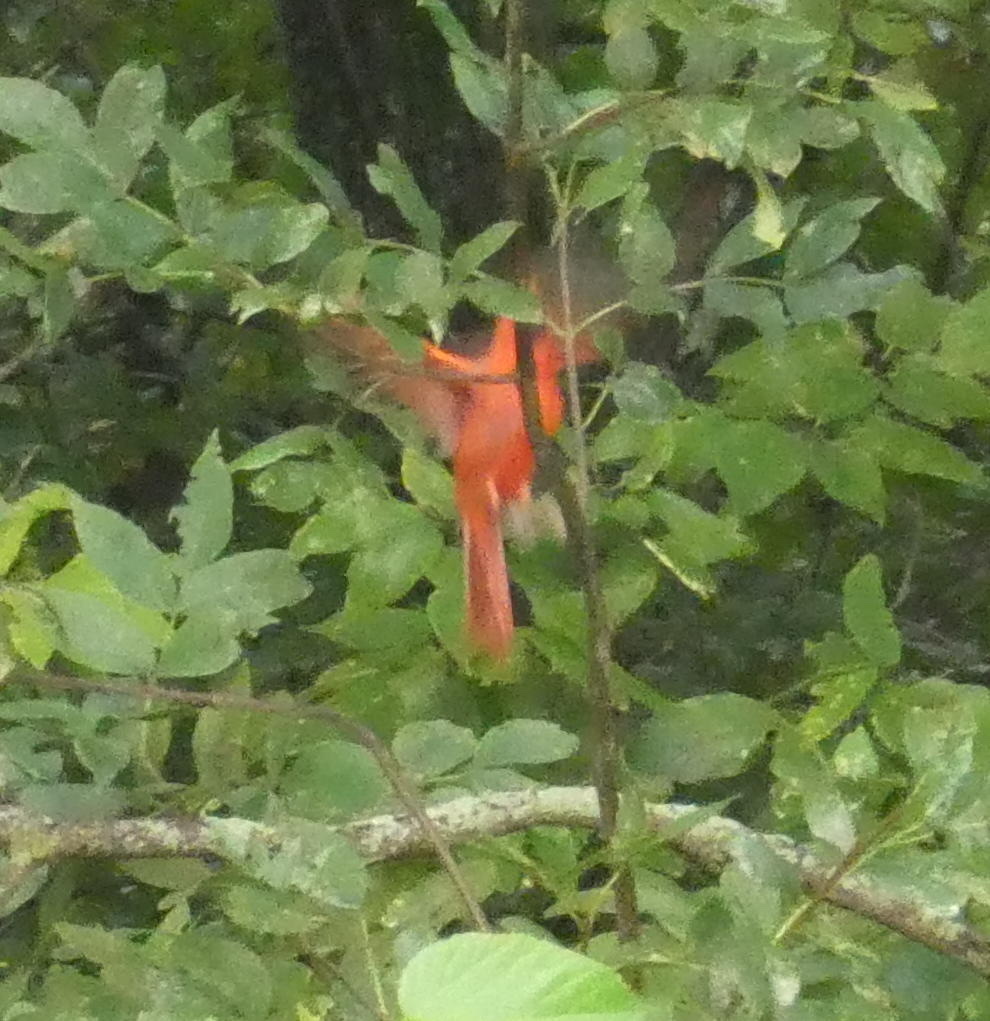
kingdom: Animalia
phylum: Chordata
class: Aves
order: Passeriformes
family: Cardinalidae
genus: Cardinalis
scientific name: Cardinalis cardinalis
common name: Northern cardinal
